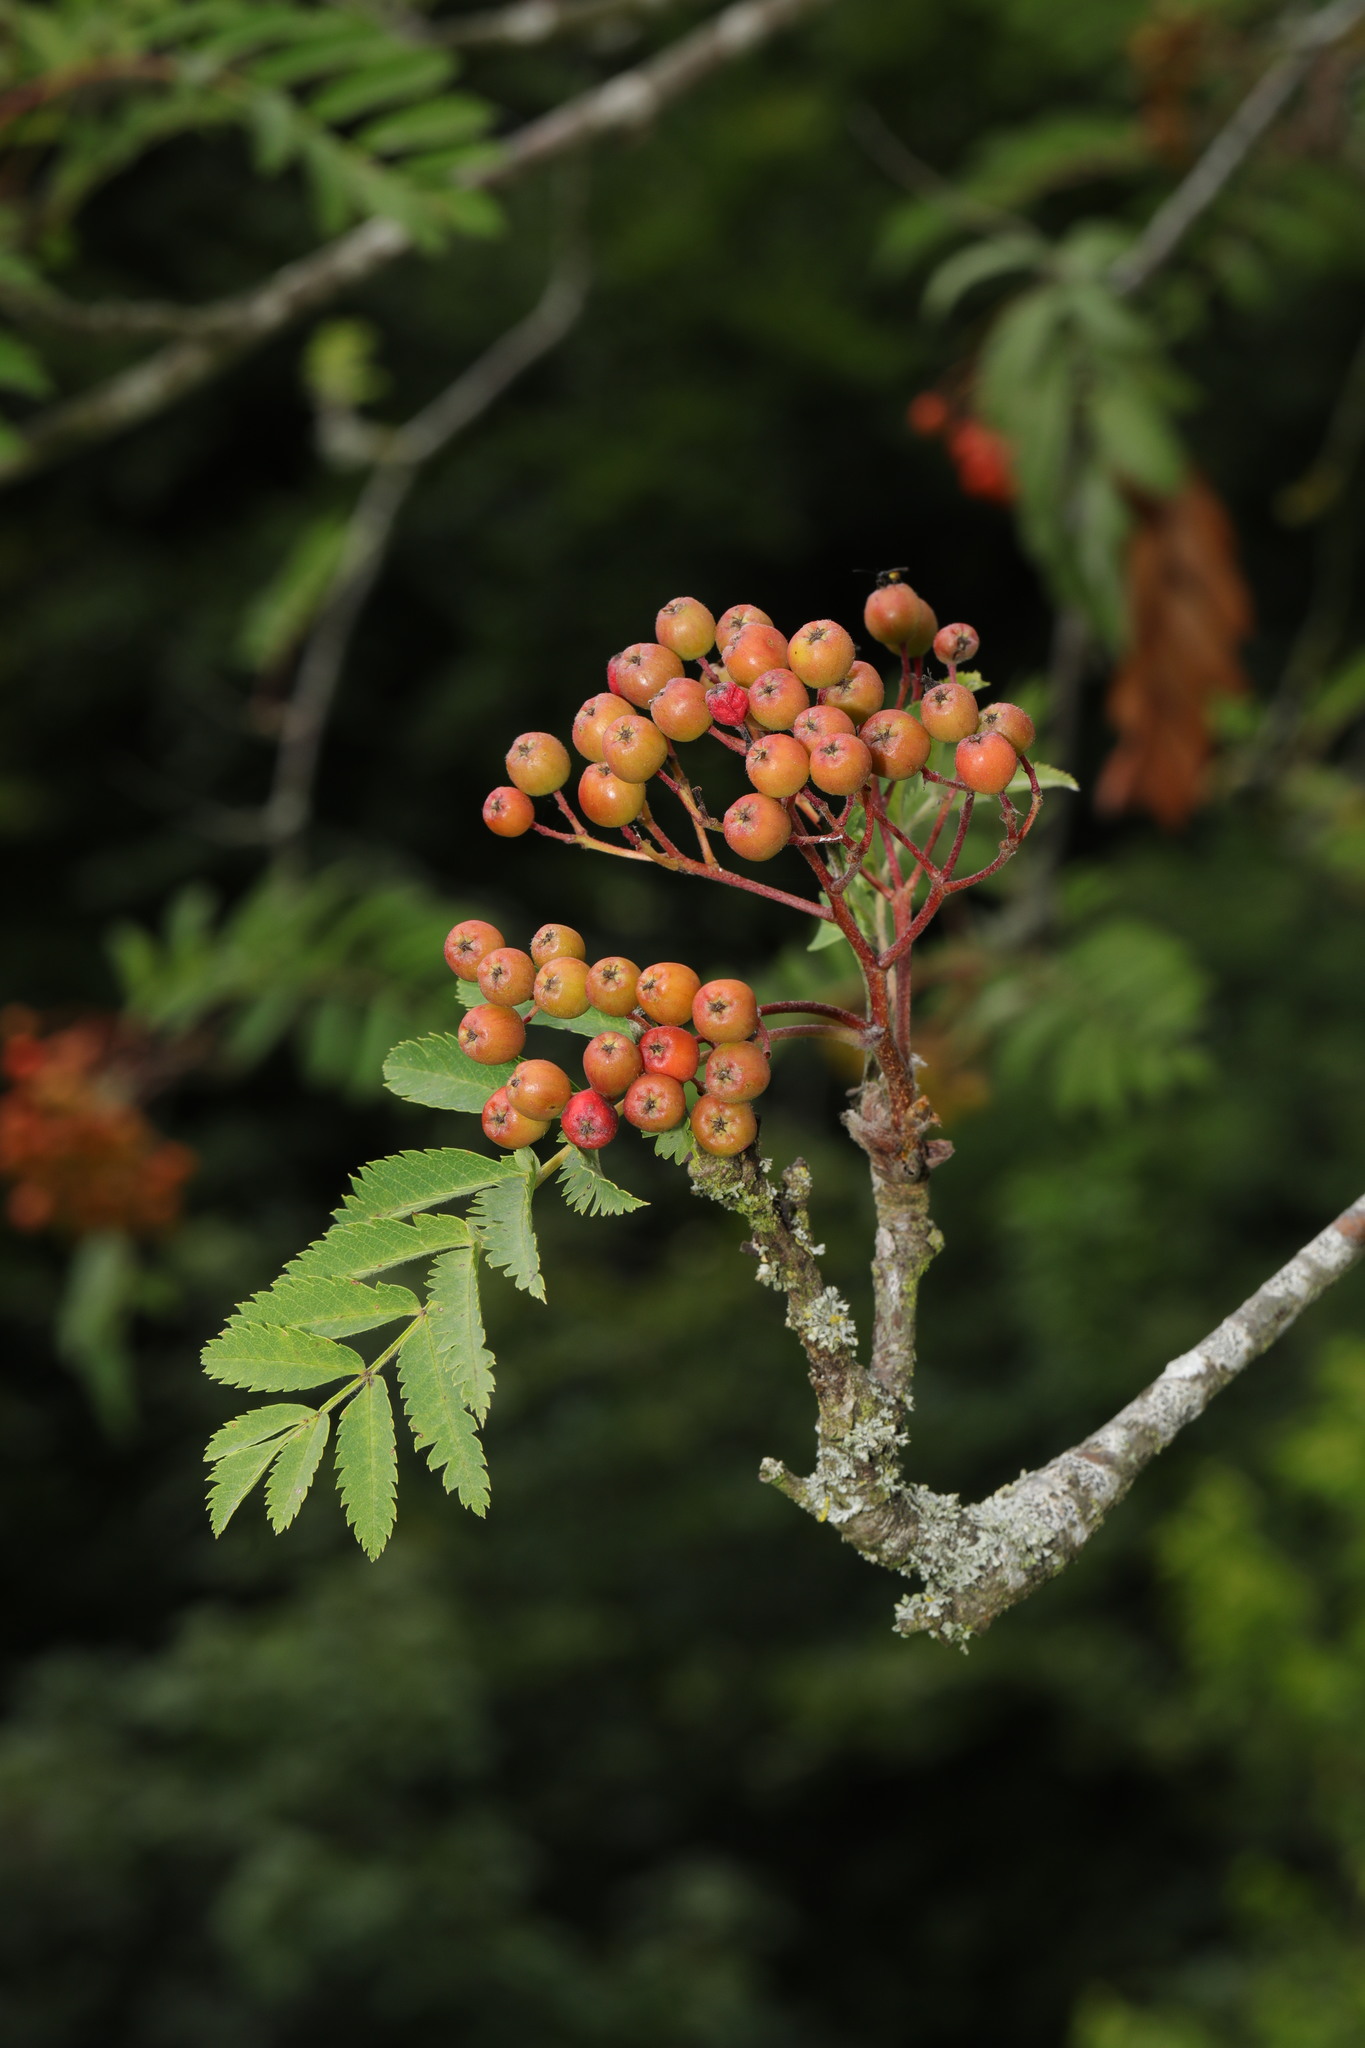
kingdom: Plantae
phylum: Tracheophyta
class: Magnoliopsida
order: Rosales
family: Rosaceae
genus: Sorbus
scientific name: Sorbus aucuparia
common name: Rowan
